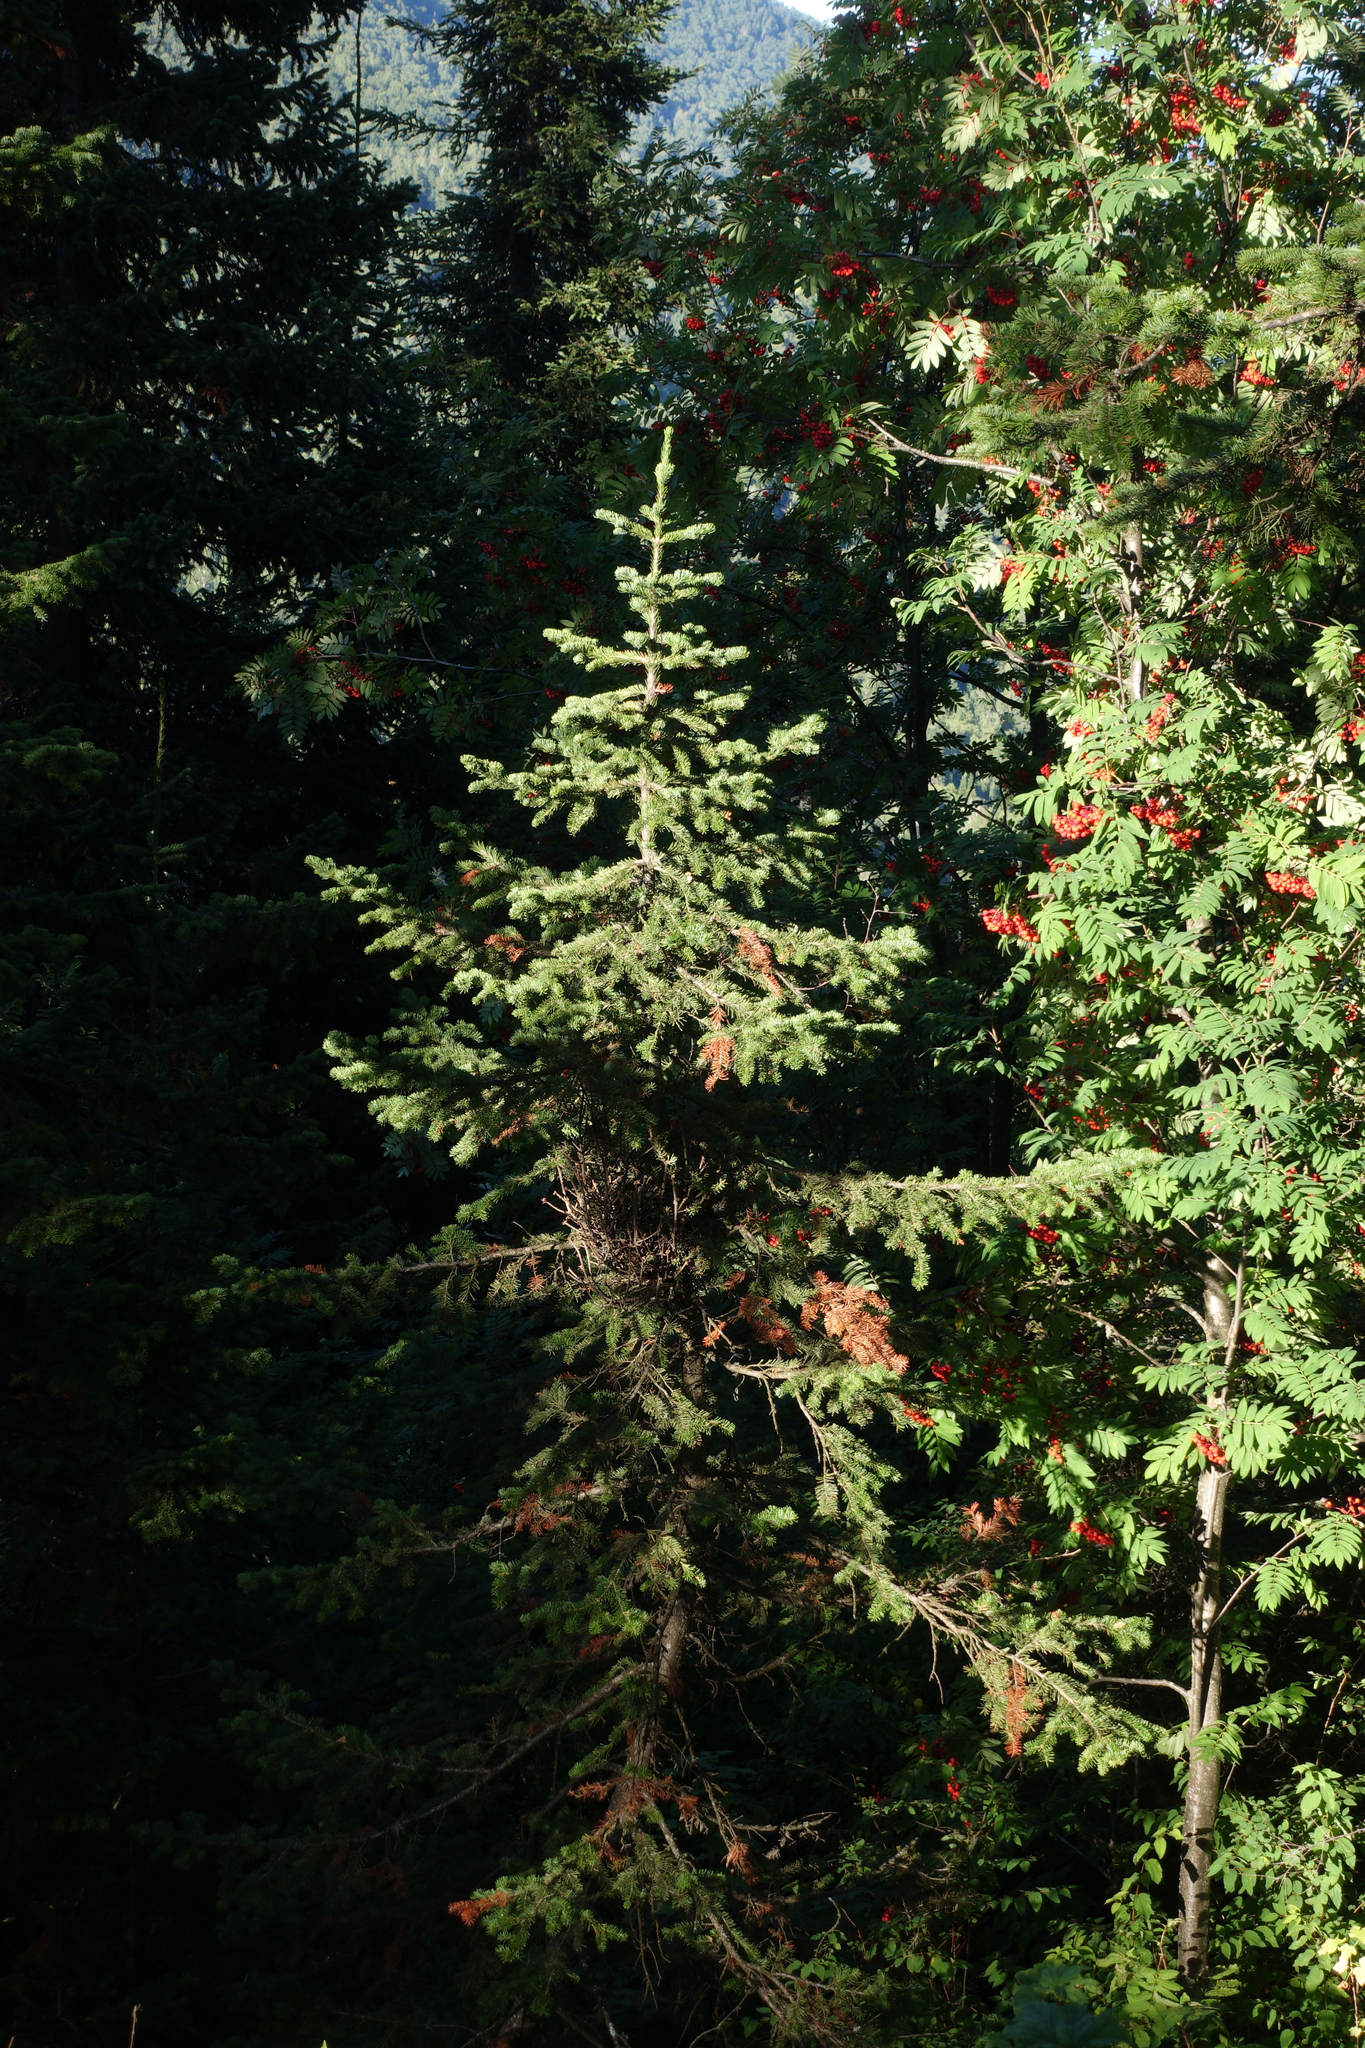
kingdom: Plantae
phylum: Tracheophyta
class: Pinopsida
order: Pinales
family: Pinaceae
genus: Abies
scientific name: Abies sibirica
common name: Siberian fir
